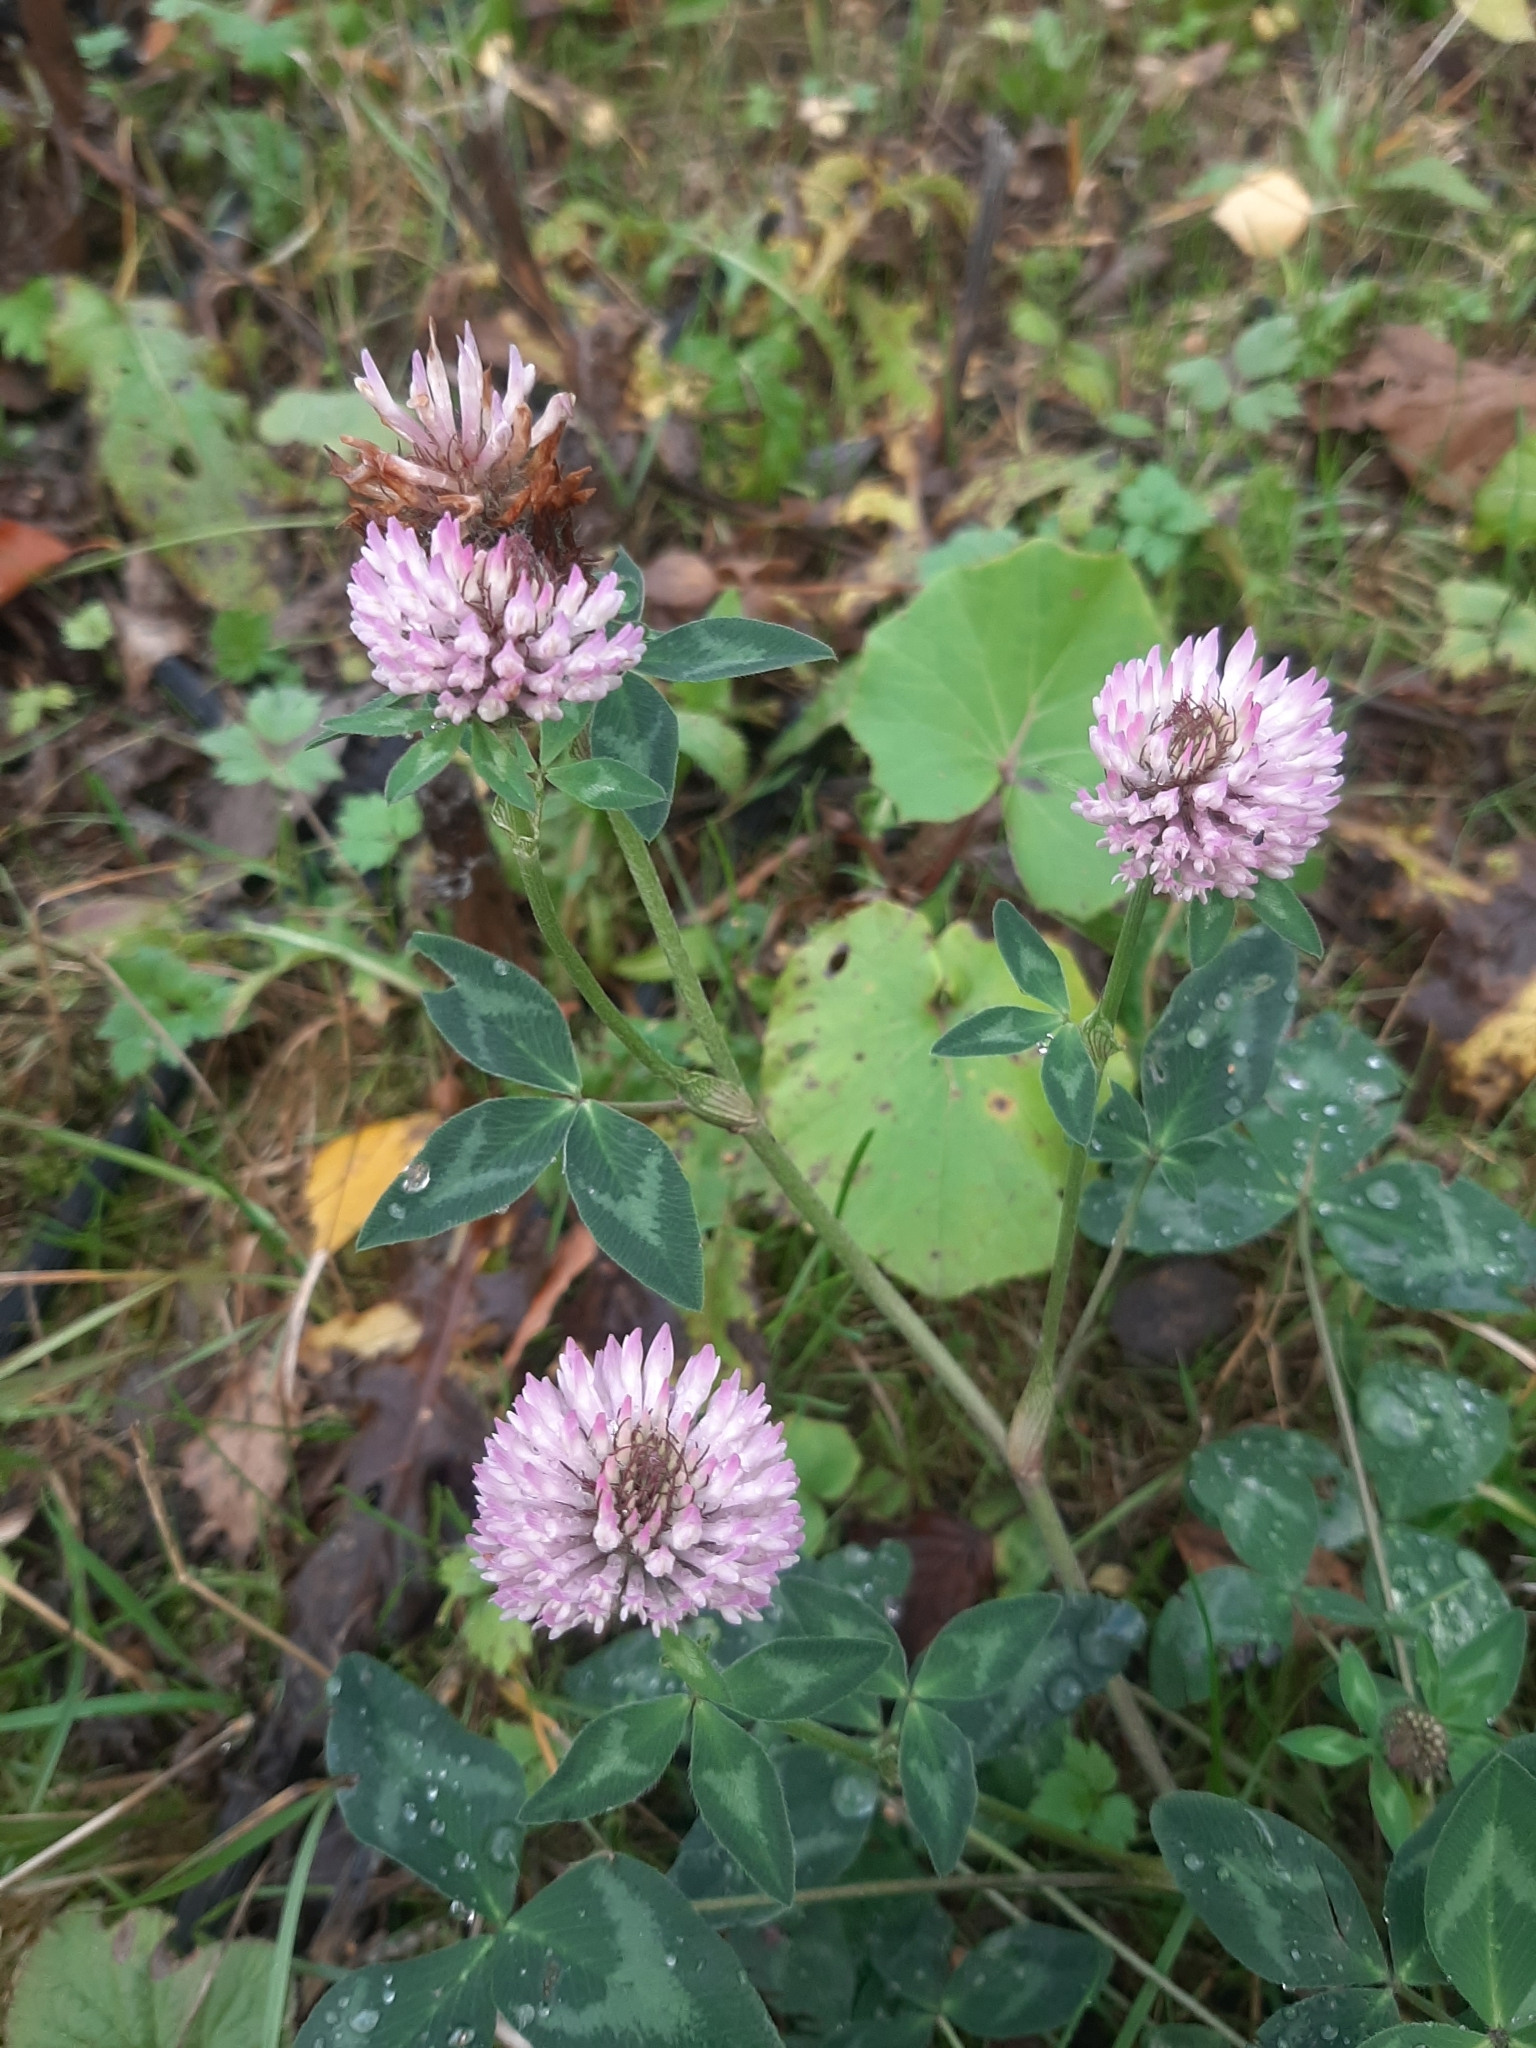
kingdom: Plantae
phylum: Tracheophyta
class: Magnoliopsida
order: Fabales
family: Fabaceae
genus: Trifolium
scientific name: Trifolium pratense
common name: Red clover
